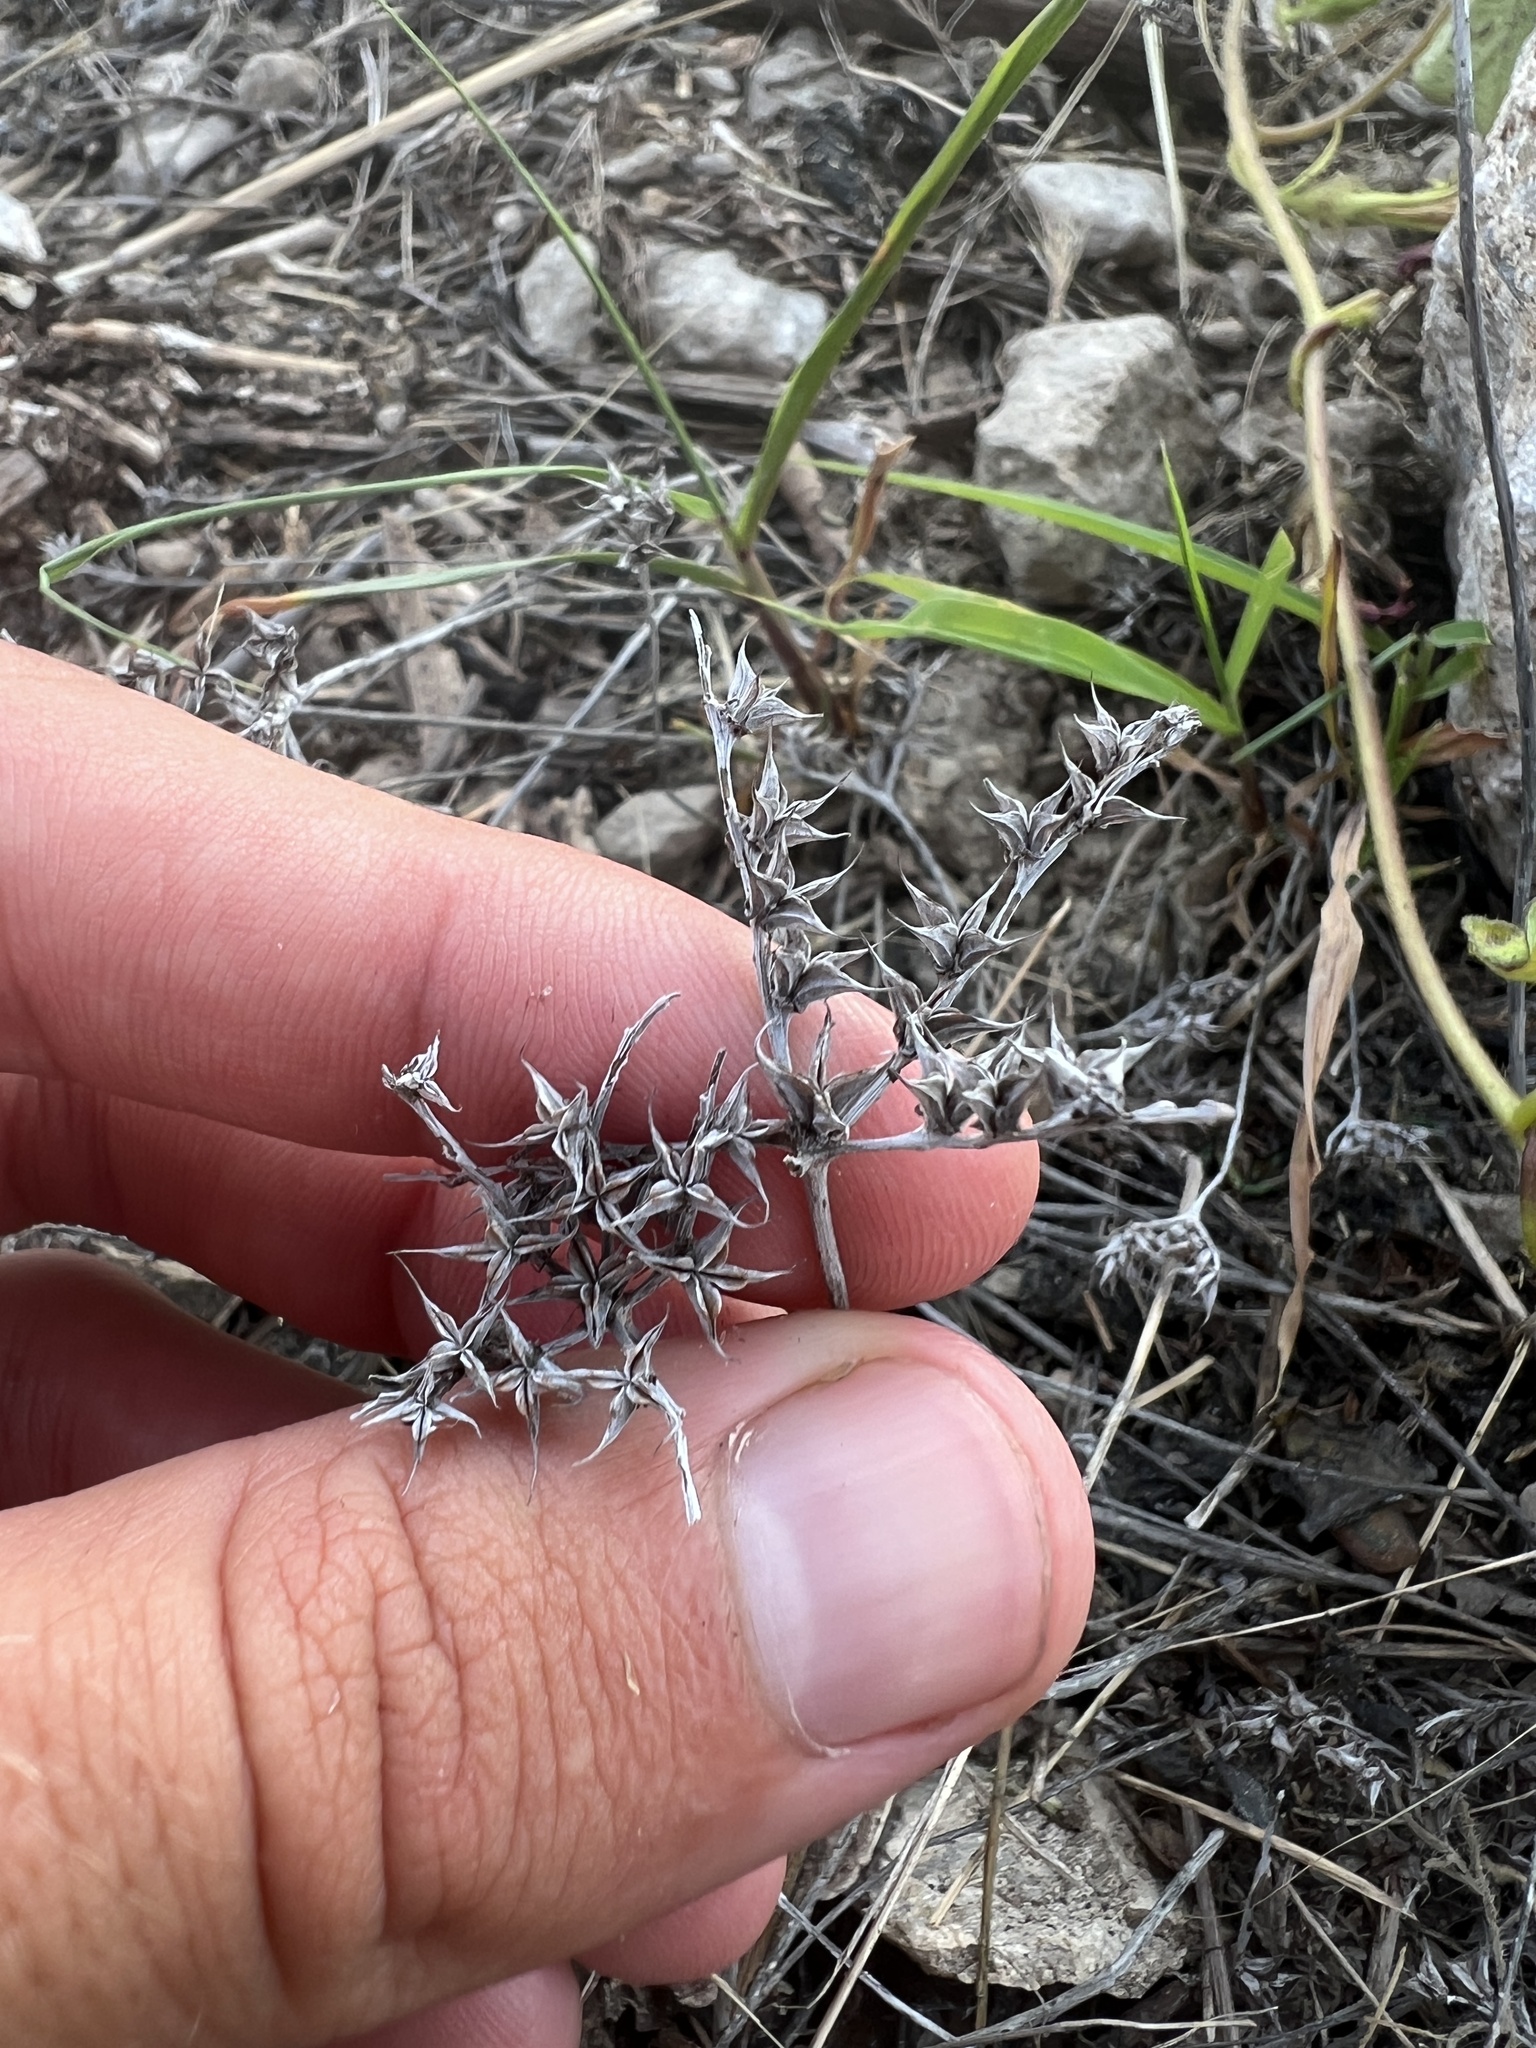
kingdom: Plantae
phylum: Tracheophyta
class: Magnoliopsida
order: Saxifragales
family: Crassulaceae
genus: Sedum
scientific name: Sedum pulchellum
